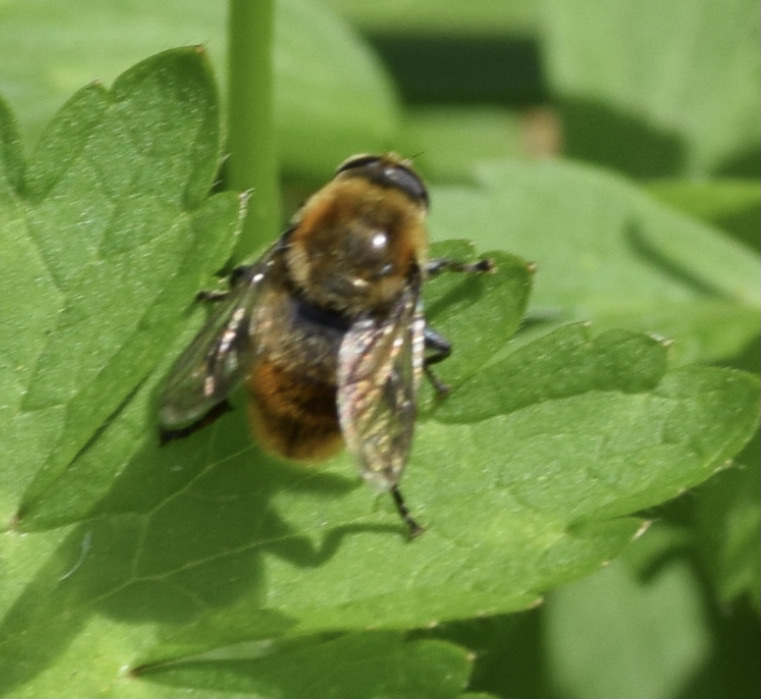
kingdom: Animalia
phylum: Arthropoda
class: Insecta
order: Diptera
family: Syrphidae
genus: Merodon
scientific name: Merodon equestris
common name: Greater bulb-fly
